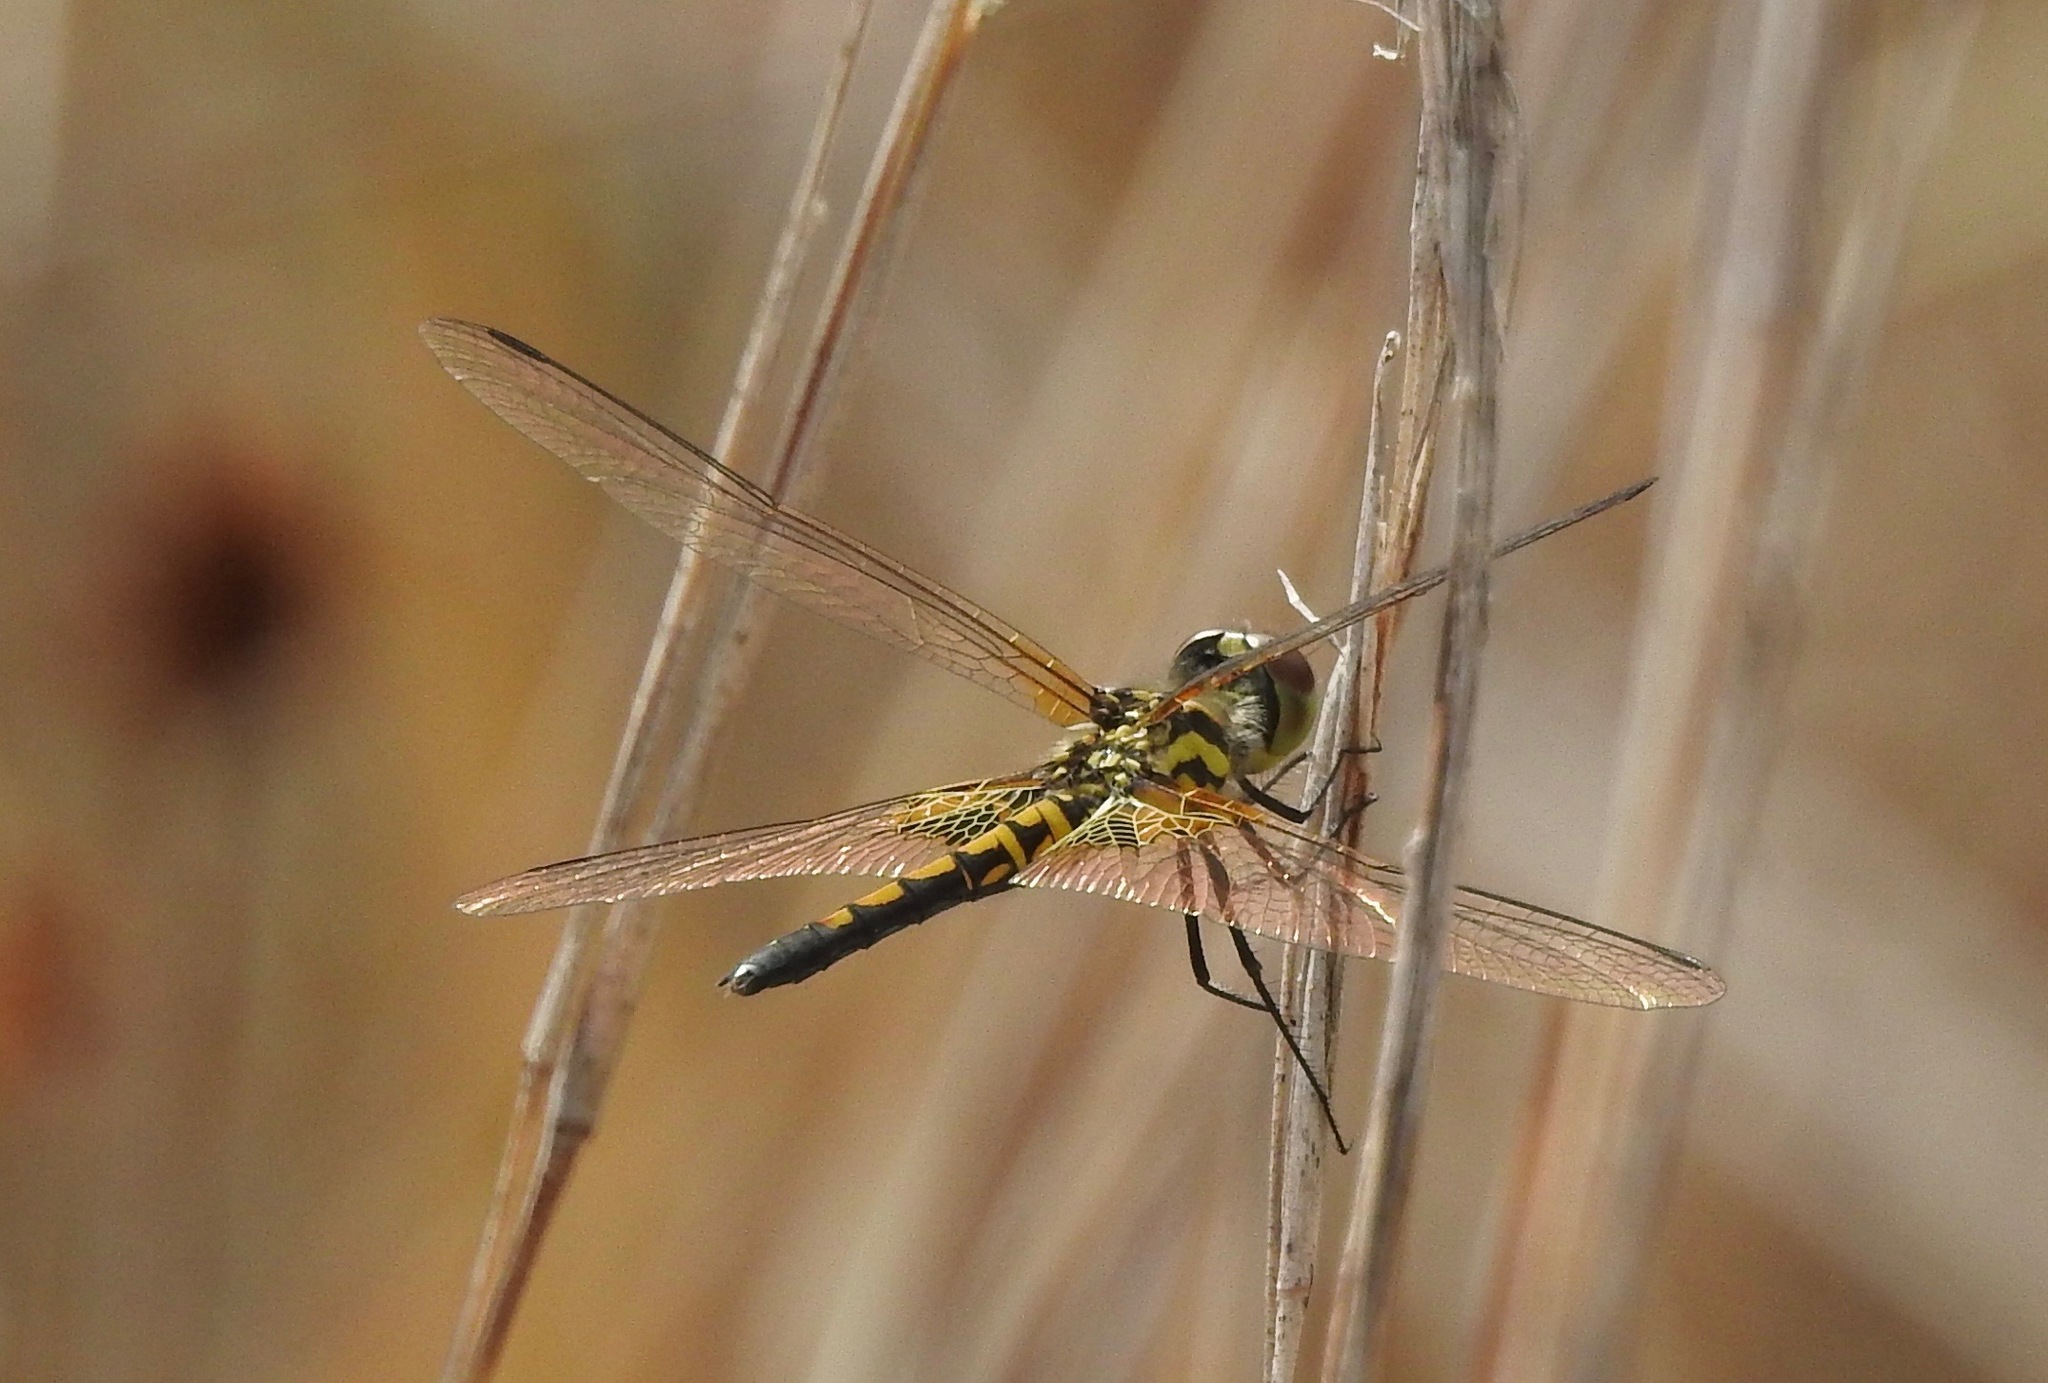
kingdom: Animalia
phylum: Arthropoda
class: Insecta
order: Odonata
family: Libellulidae
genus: Celithemis
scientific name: Celithemis ornata
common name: Ornate pennant
